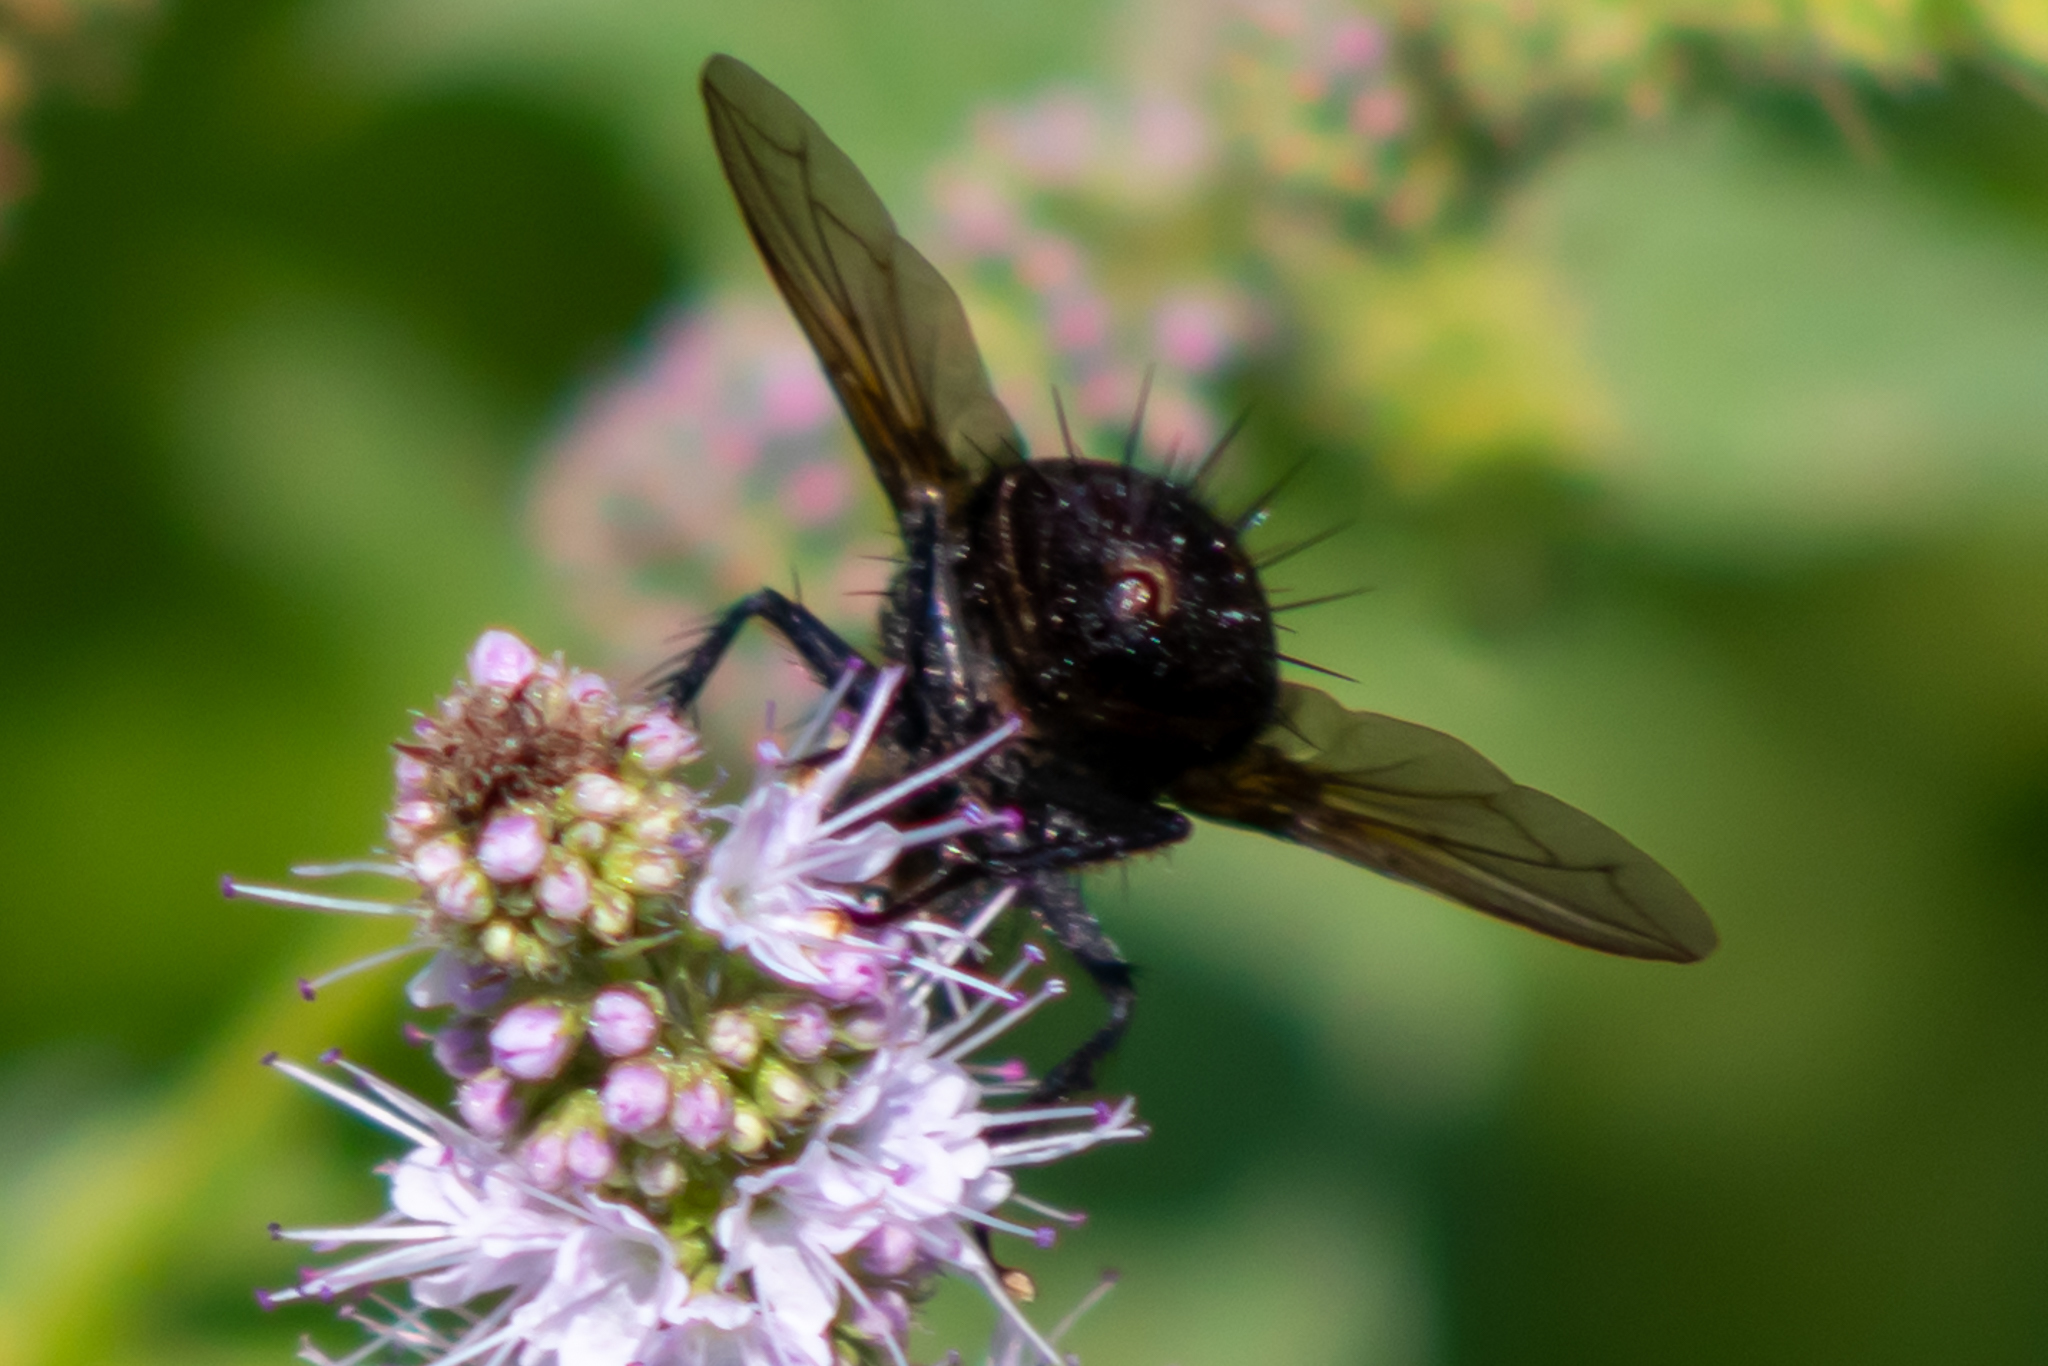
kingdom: Animalia
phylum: Arthropoda
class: Insecta
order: Diptera
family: Tachinidae
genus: Juriniopsis
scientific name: Juriniopsis adusta
